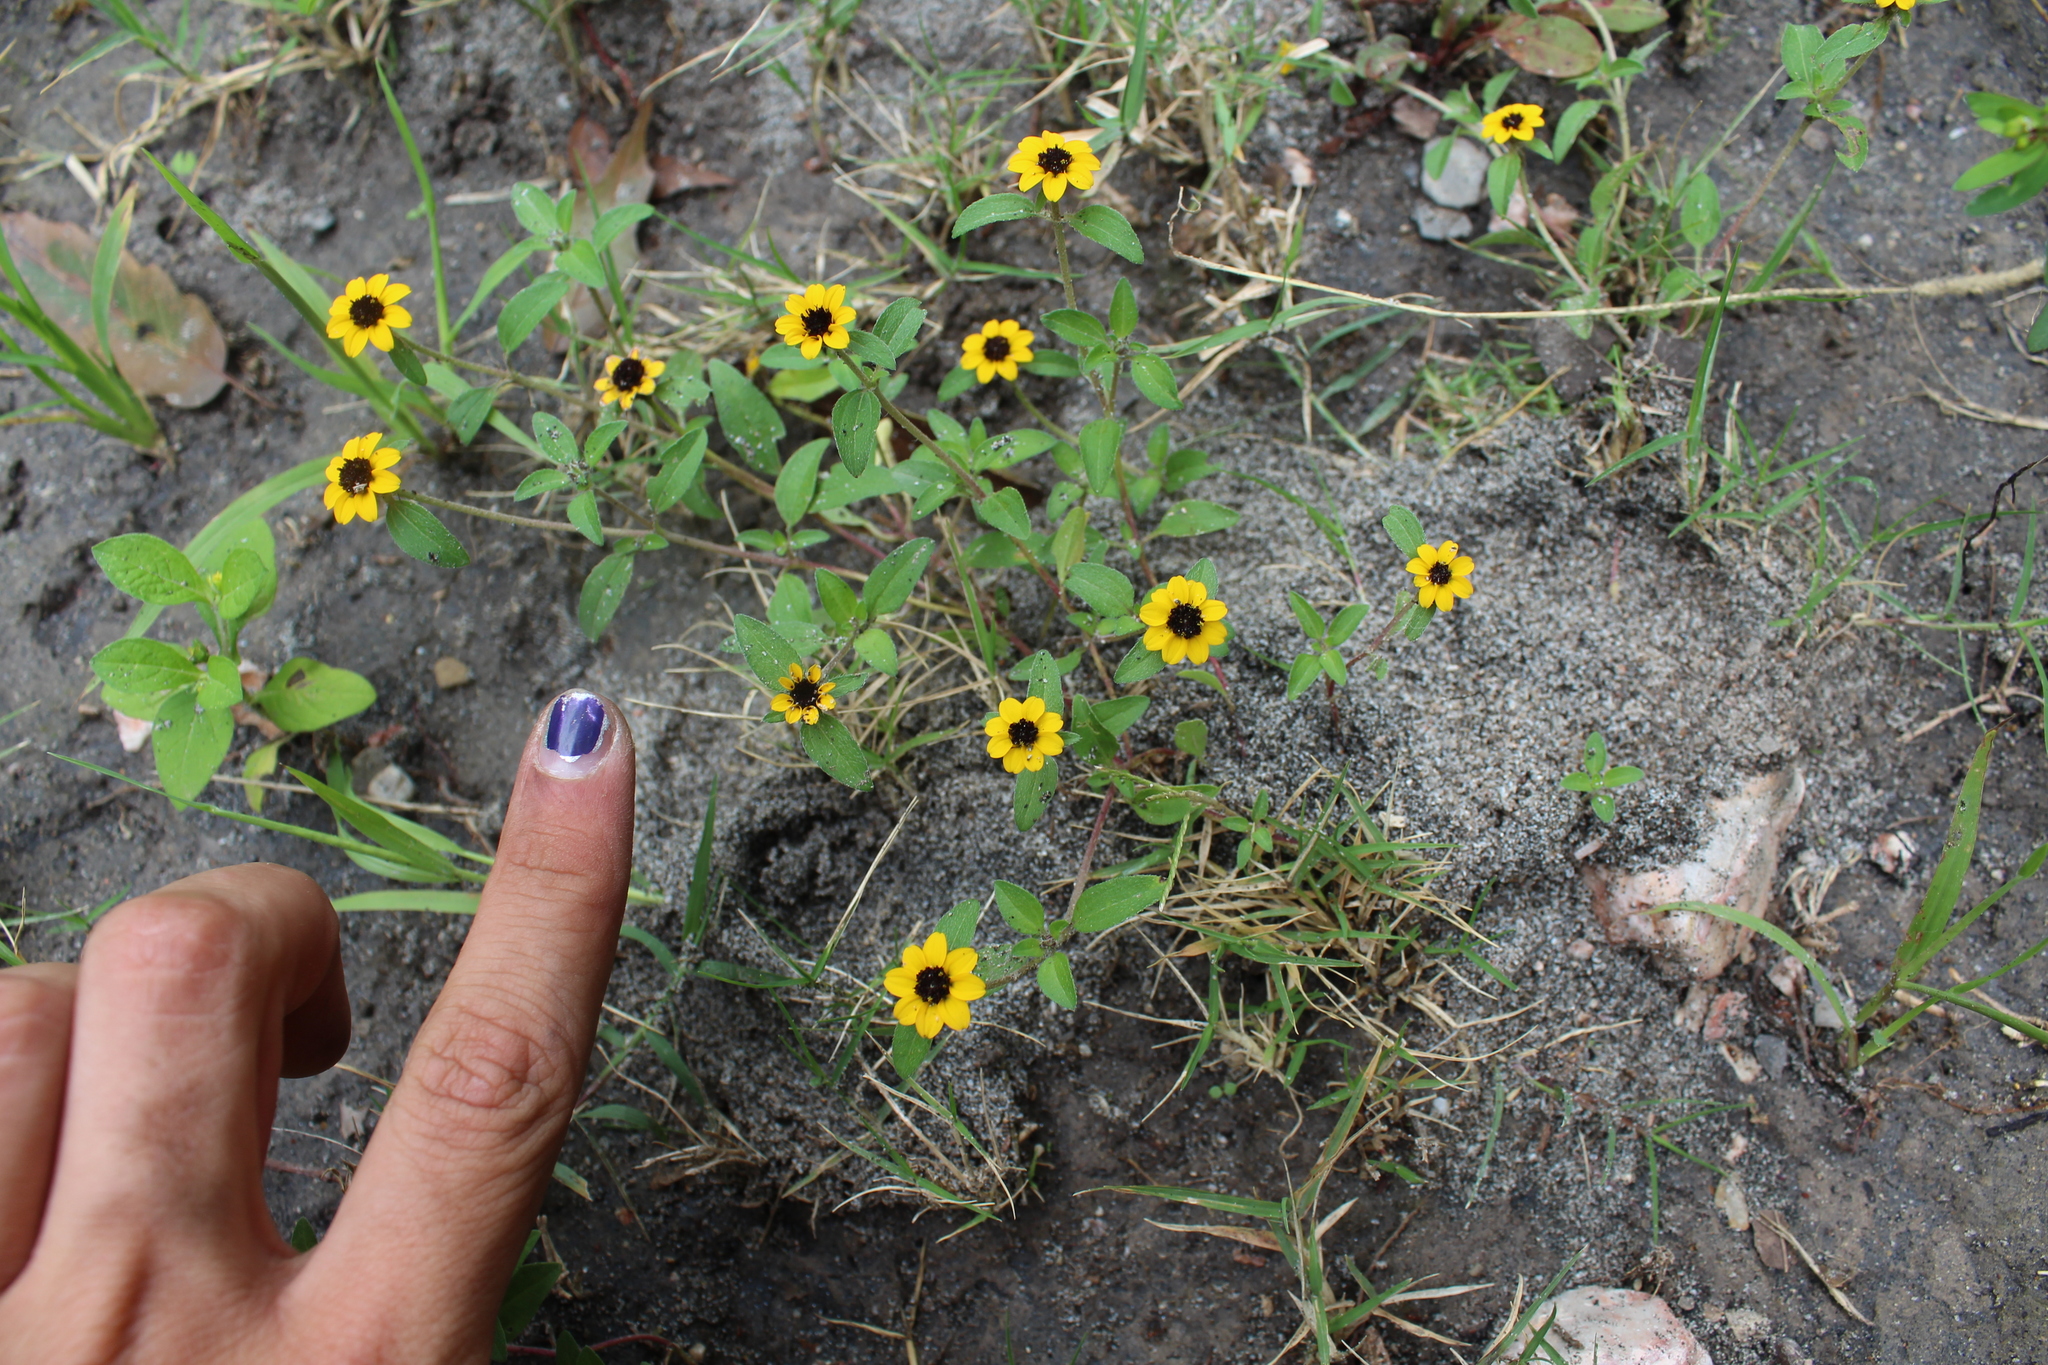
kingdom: Plantae
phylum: Tracheophyta
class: Magnoliopsida
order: Asterales
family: Asteraceae
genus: Sanvitalia
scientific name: Sanvitalia procumbens
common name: Mexican creeping zinnia
